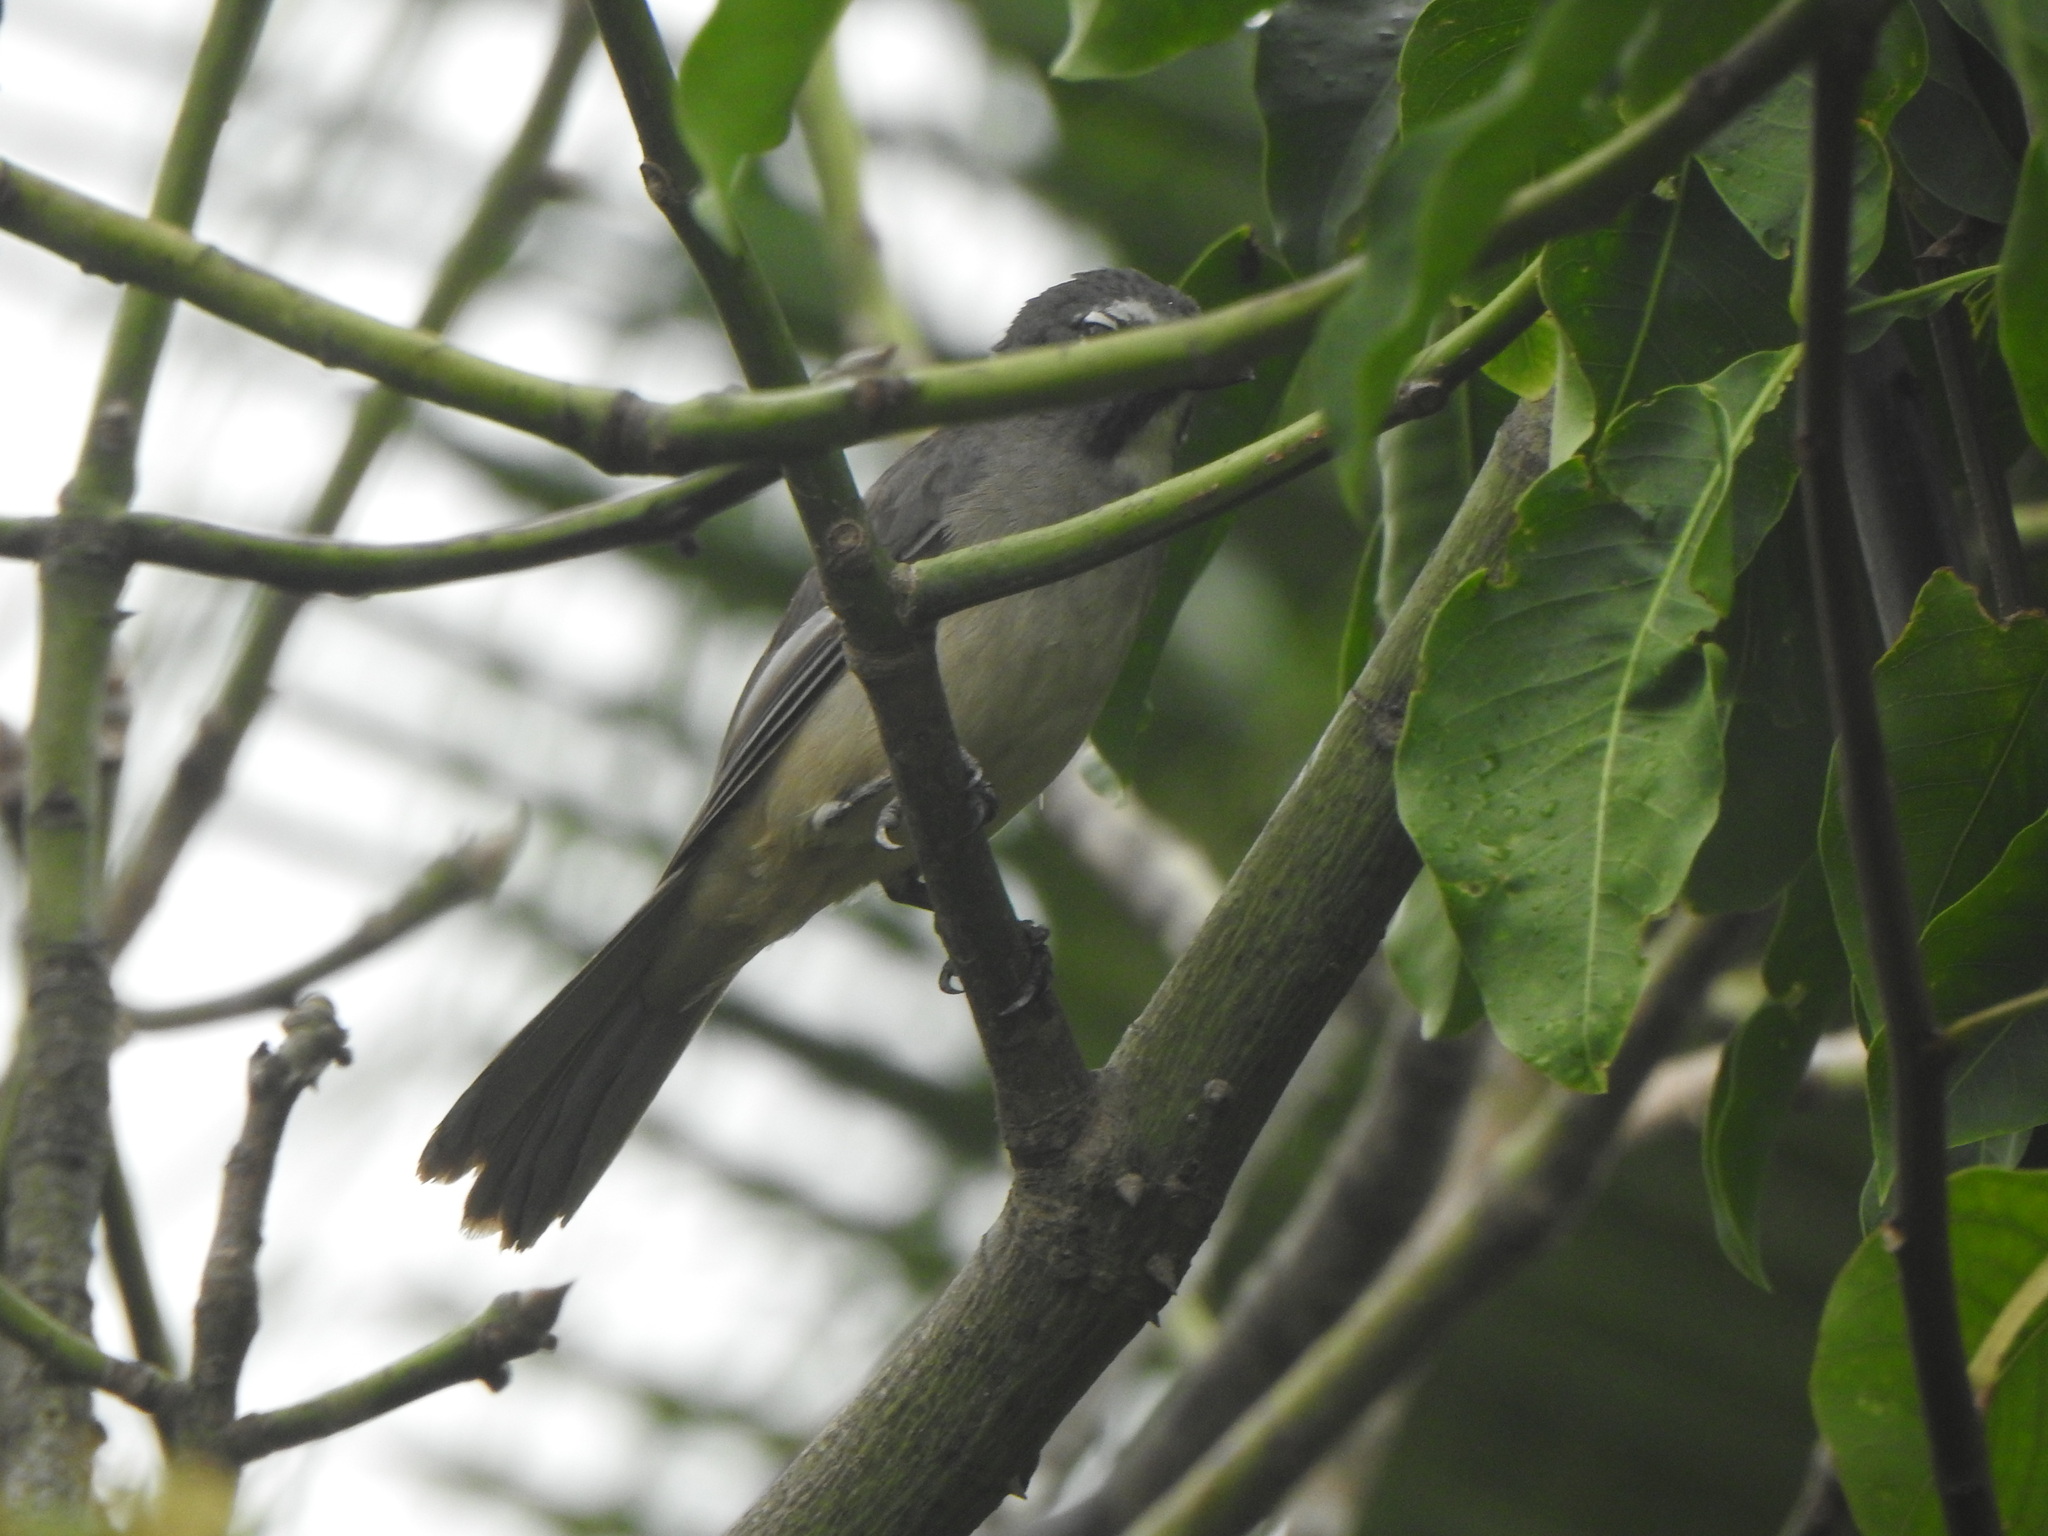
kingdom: Animalia
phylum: Chordata
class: Aves
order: Passeriformes
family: Thraupidae
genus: Saltator
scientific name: Saltator olivascens
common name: Caribbean grey saltator
